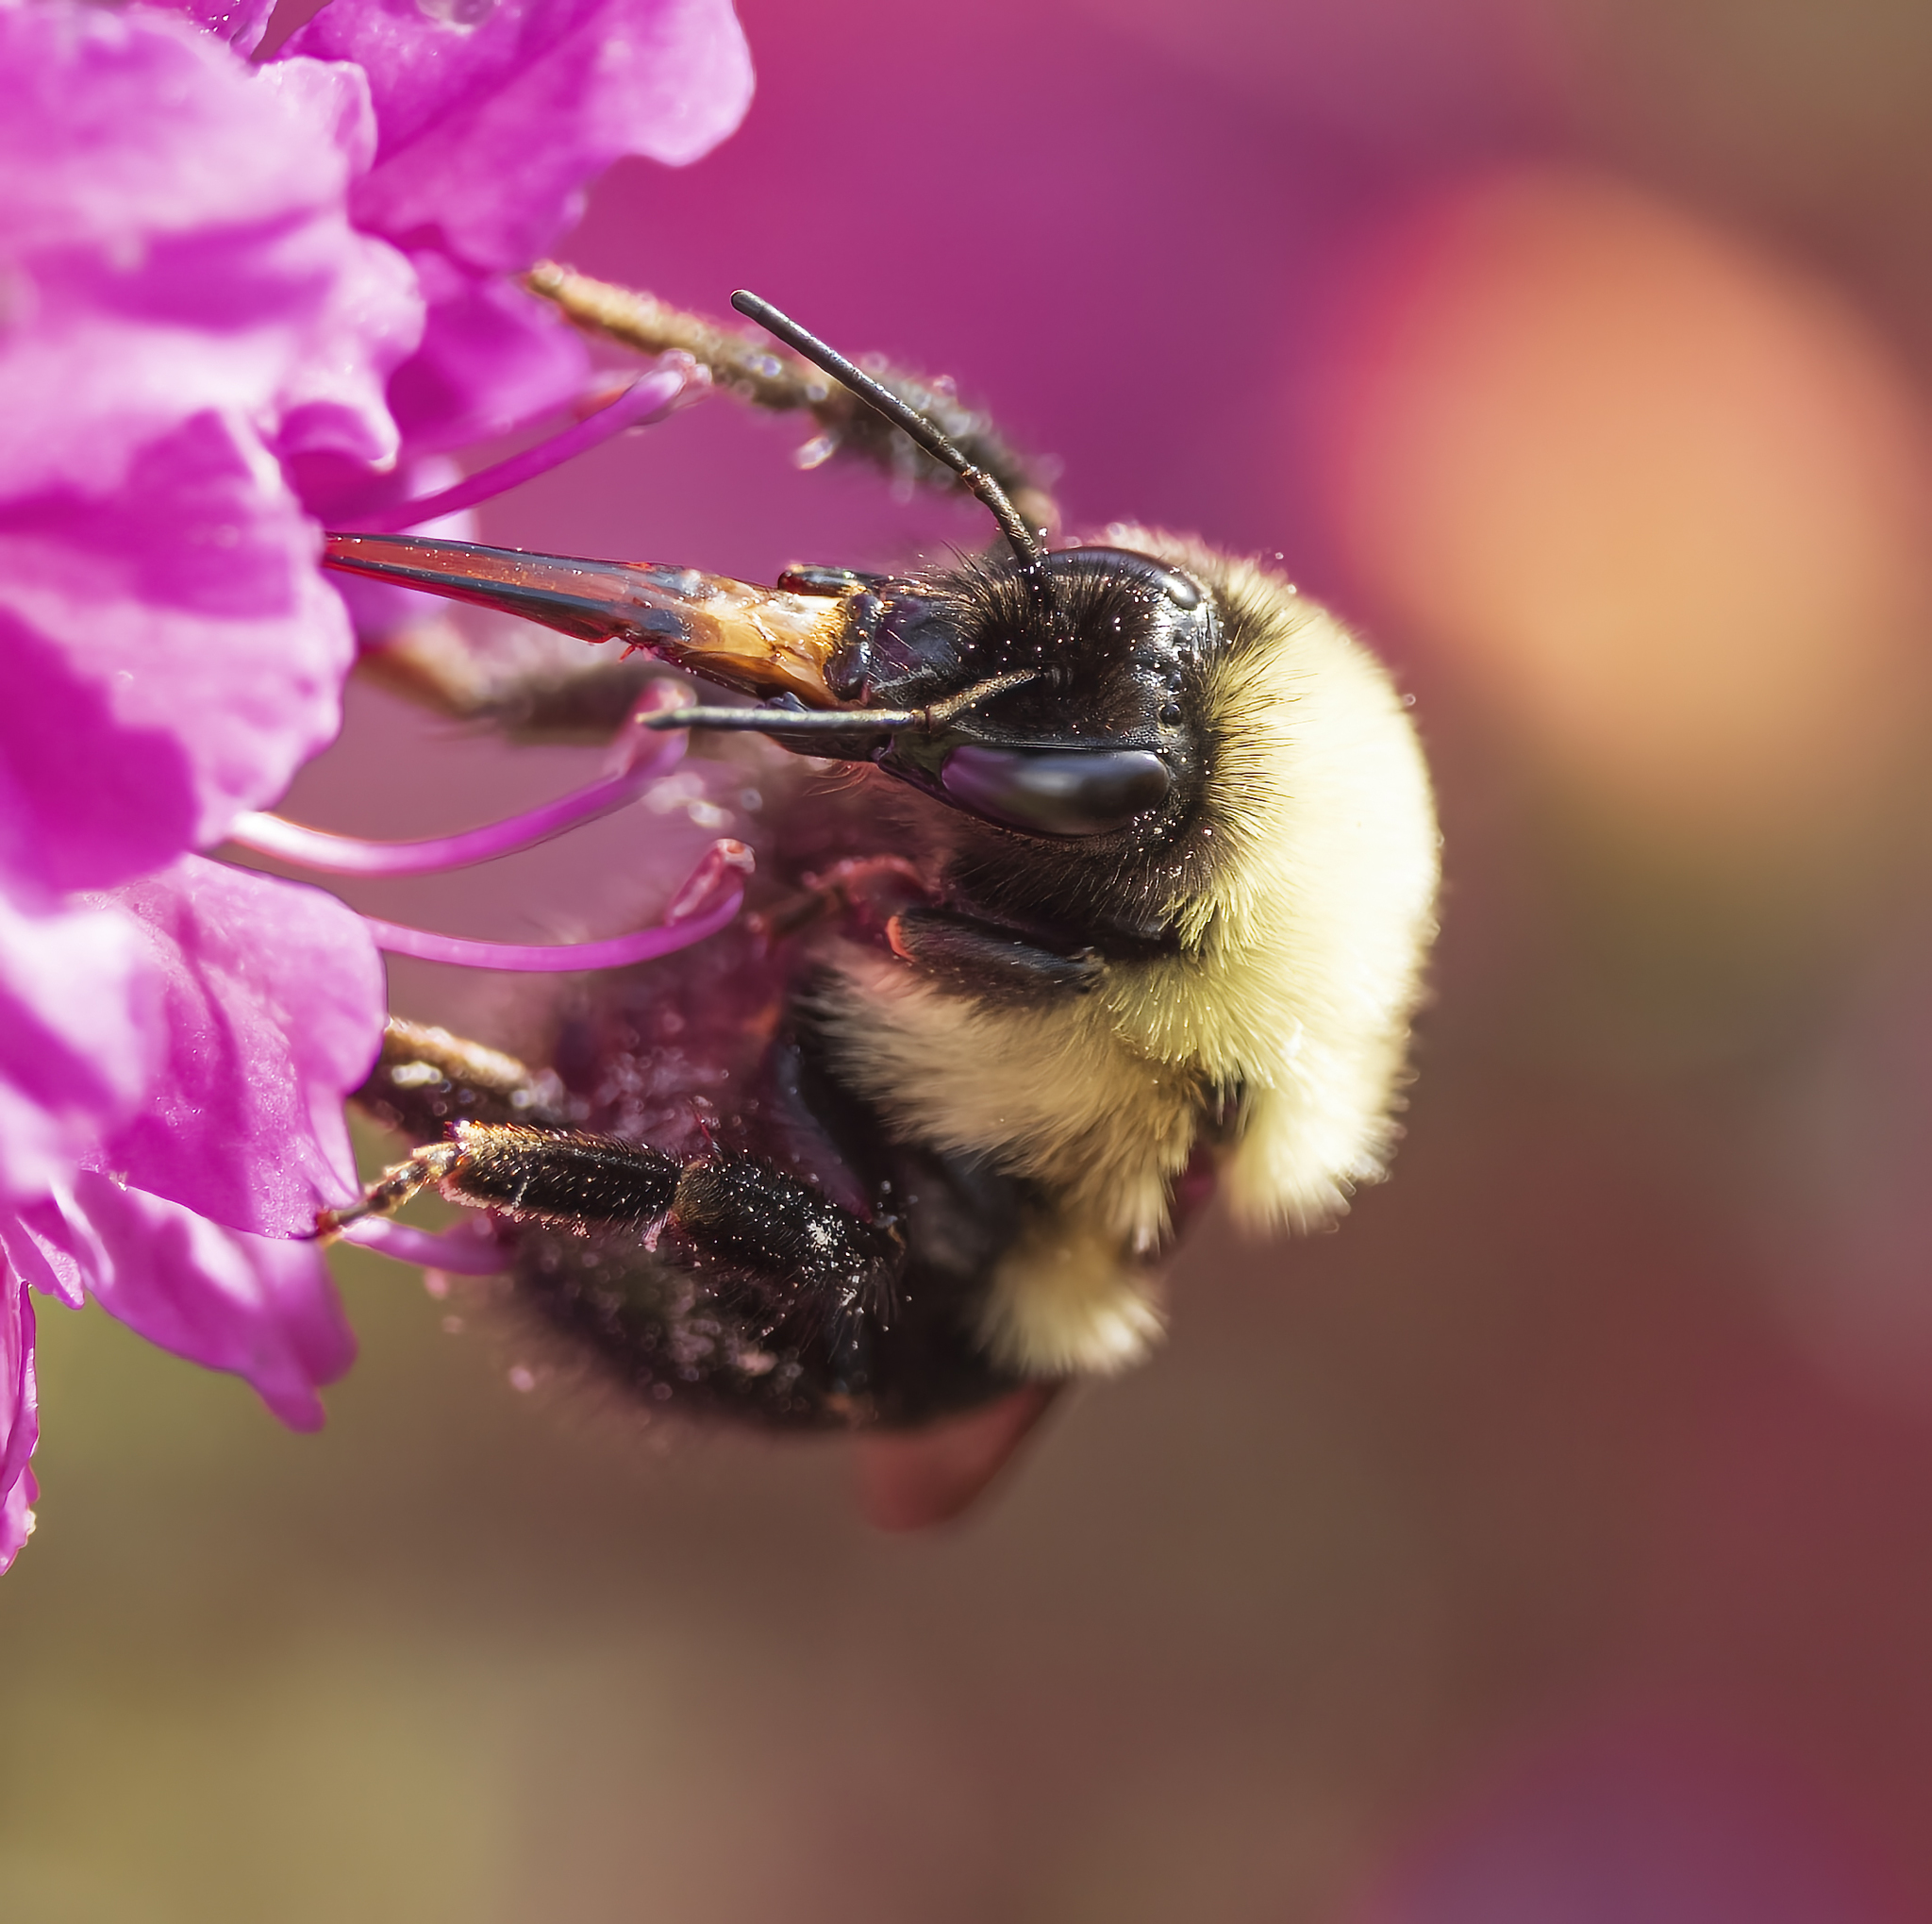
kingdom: Animalia
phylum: Arthropoda
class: Insecta
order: Hymenoptera
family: Apidae
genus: Bombus
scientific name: Bombus bimaculatus
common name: Two-spotted bumble bee
